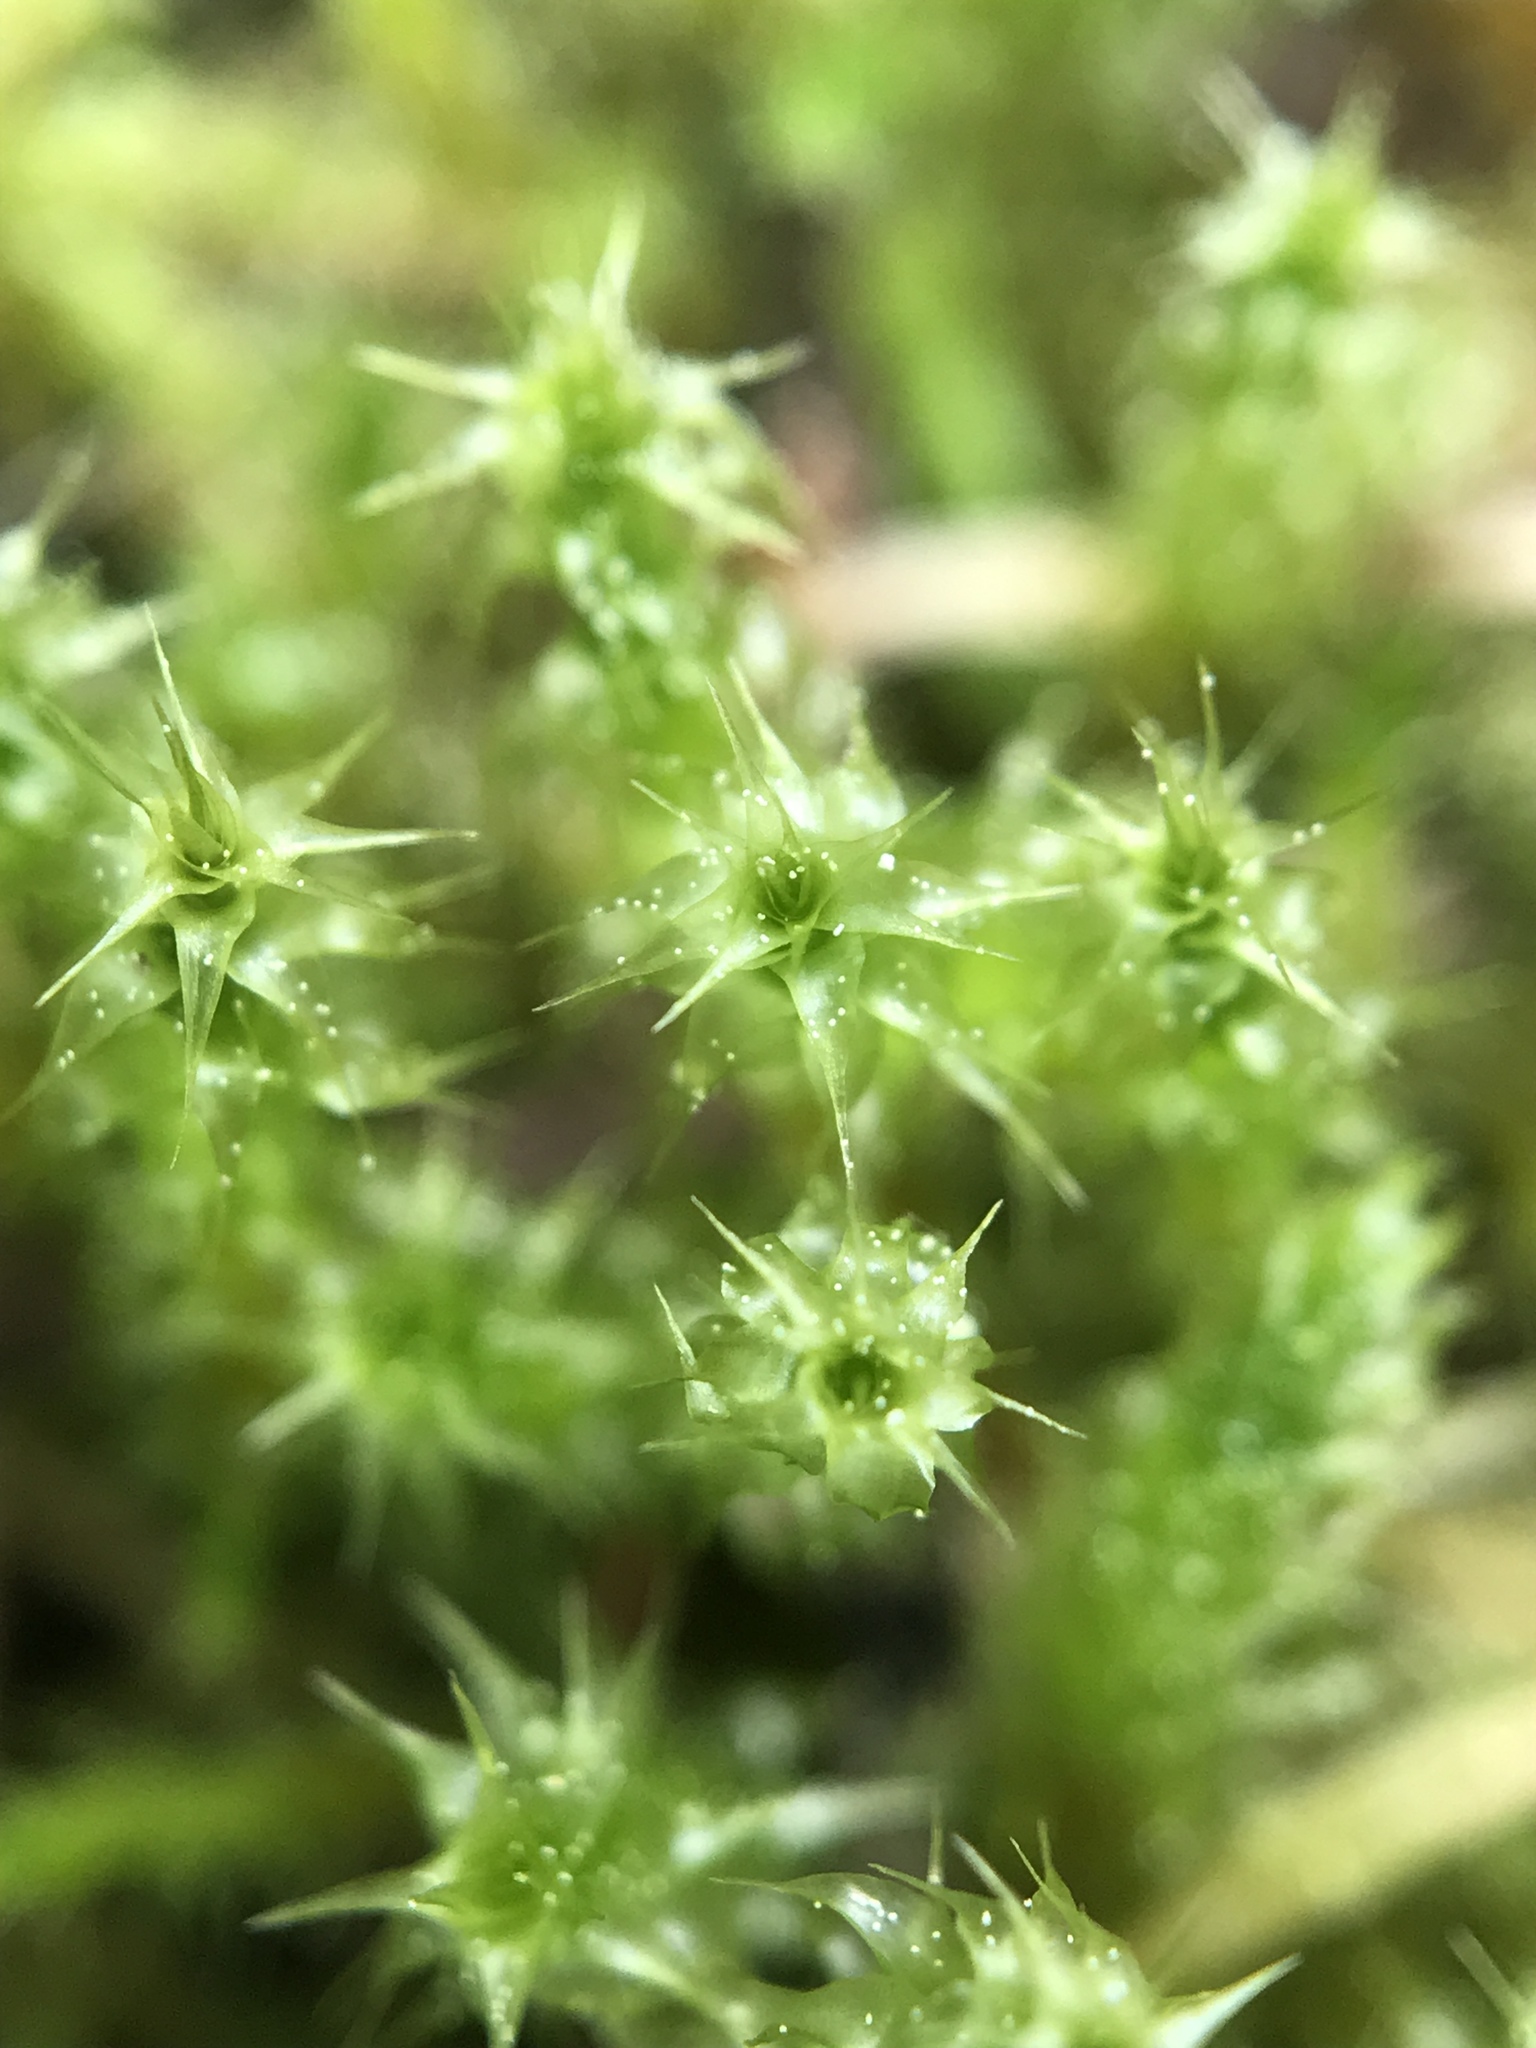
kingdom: Plantae
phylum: Bryophyta
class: Bryopsida
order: Hypnales
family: Hylocomiaceae
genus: Rhytidiadelphus
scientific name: Rhytidiadelphus squarrosus
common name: Springy turf-moss
